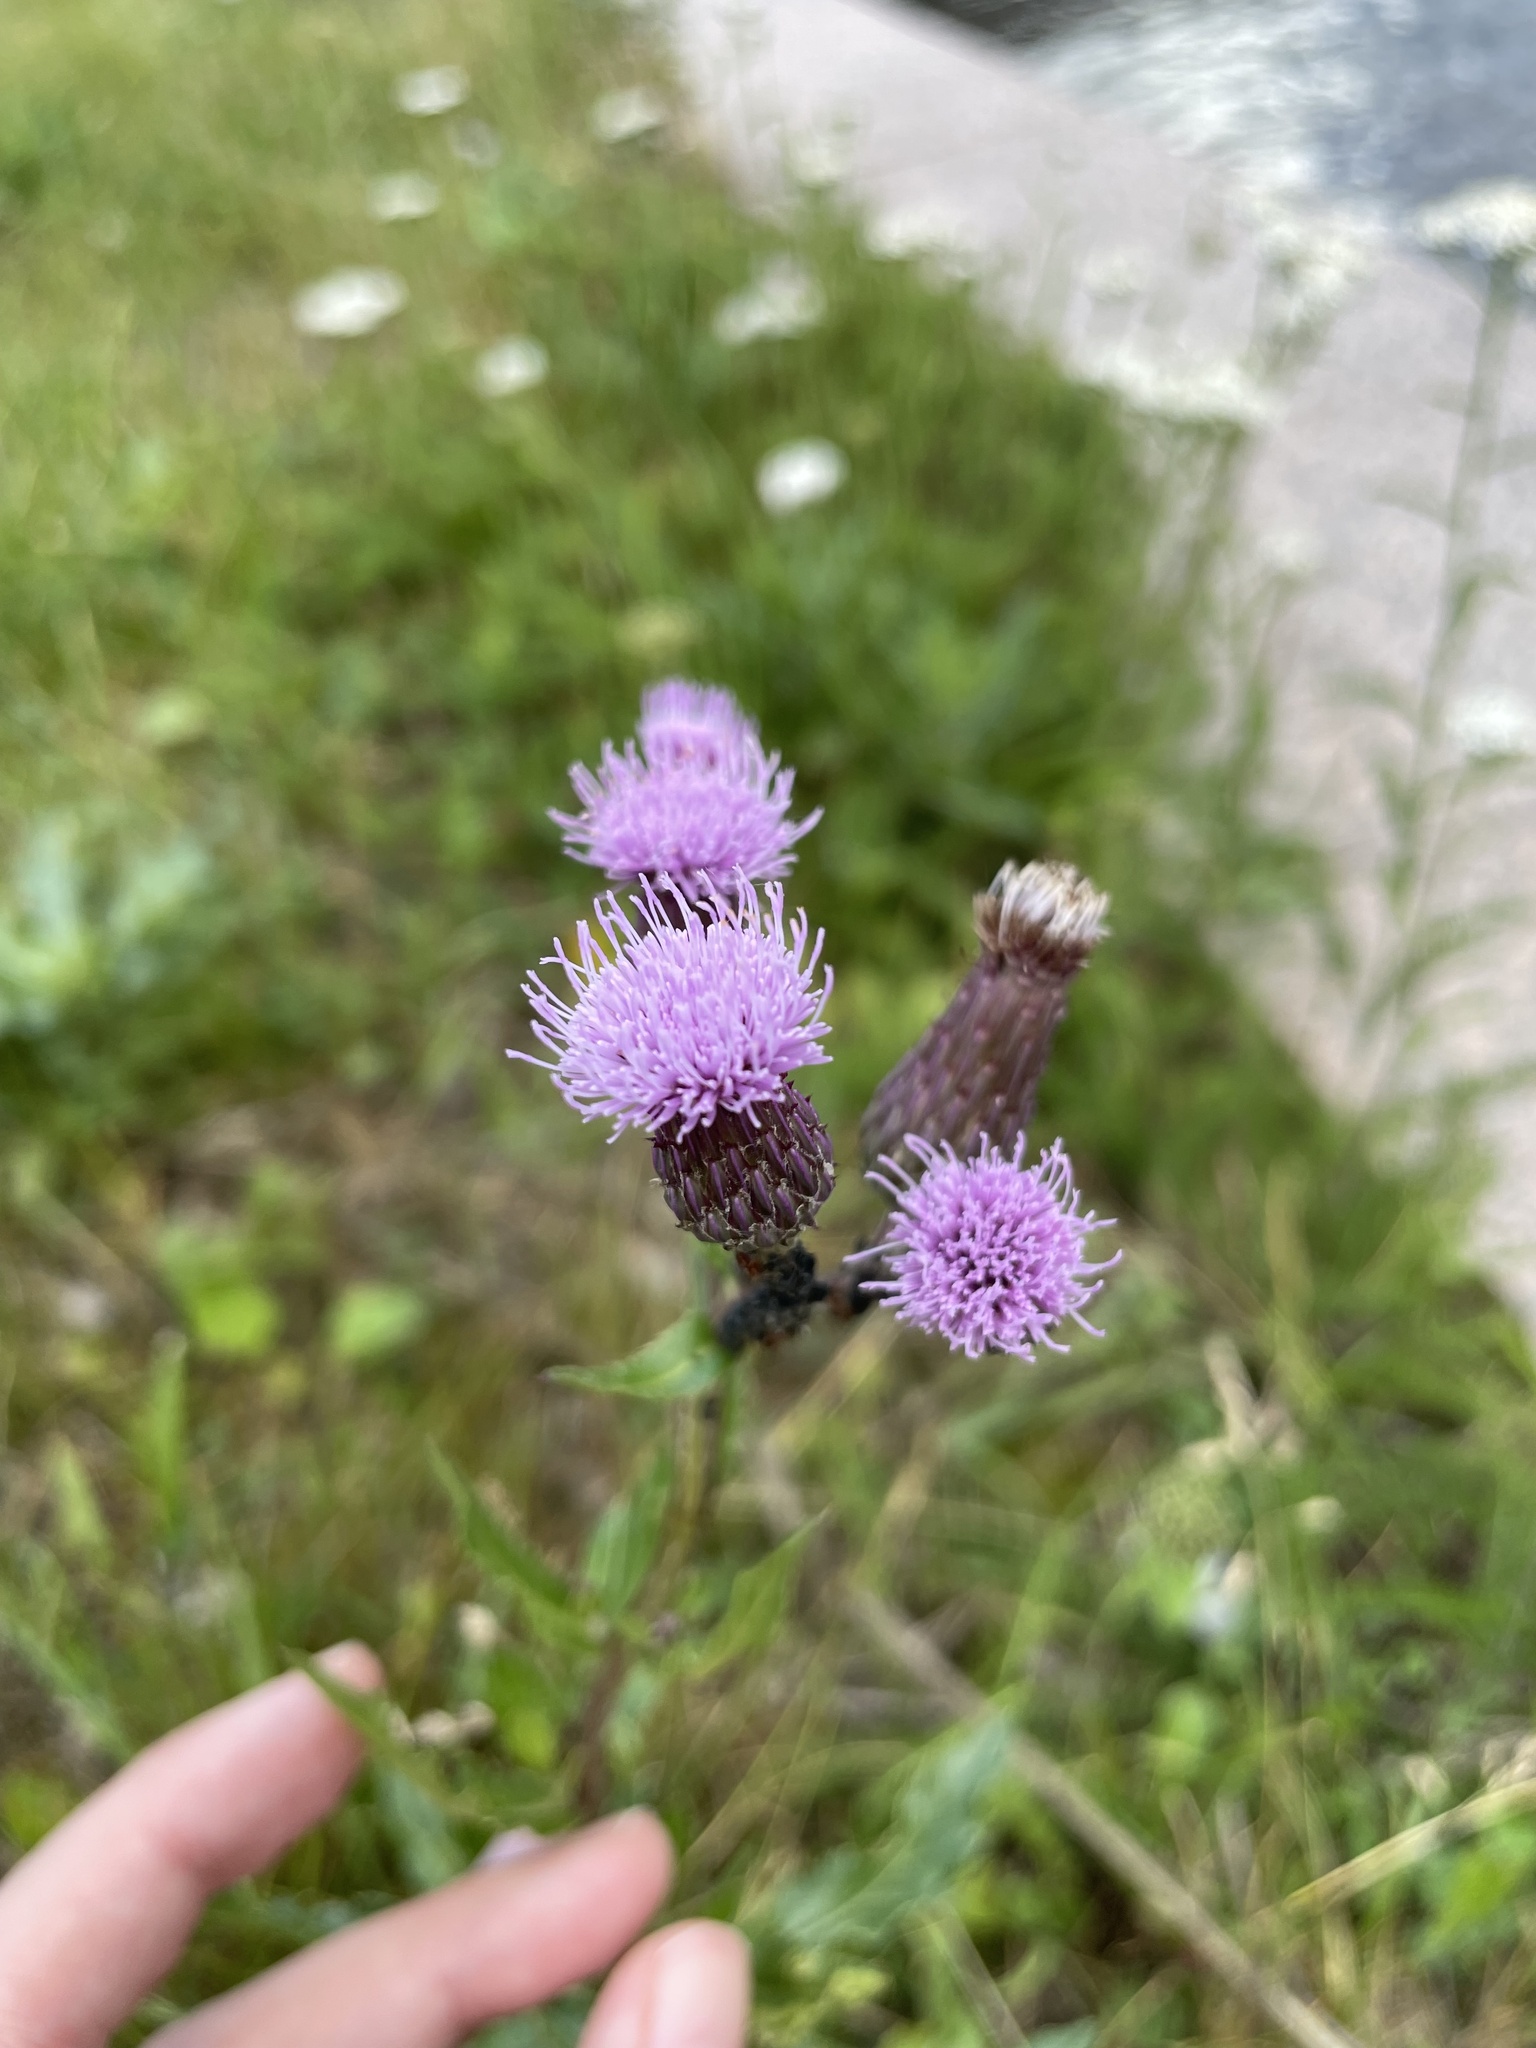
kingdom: Plantae
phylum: Tracheophyta
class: Magnoliopsida
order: Asterales
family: Asteraceae
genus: Cirsium
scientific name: Cirsium arvense
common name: Creeping thistle
